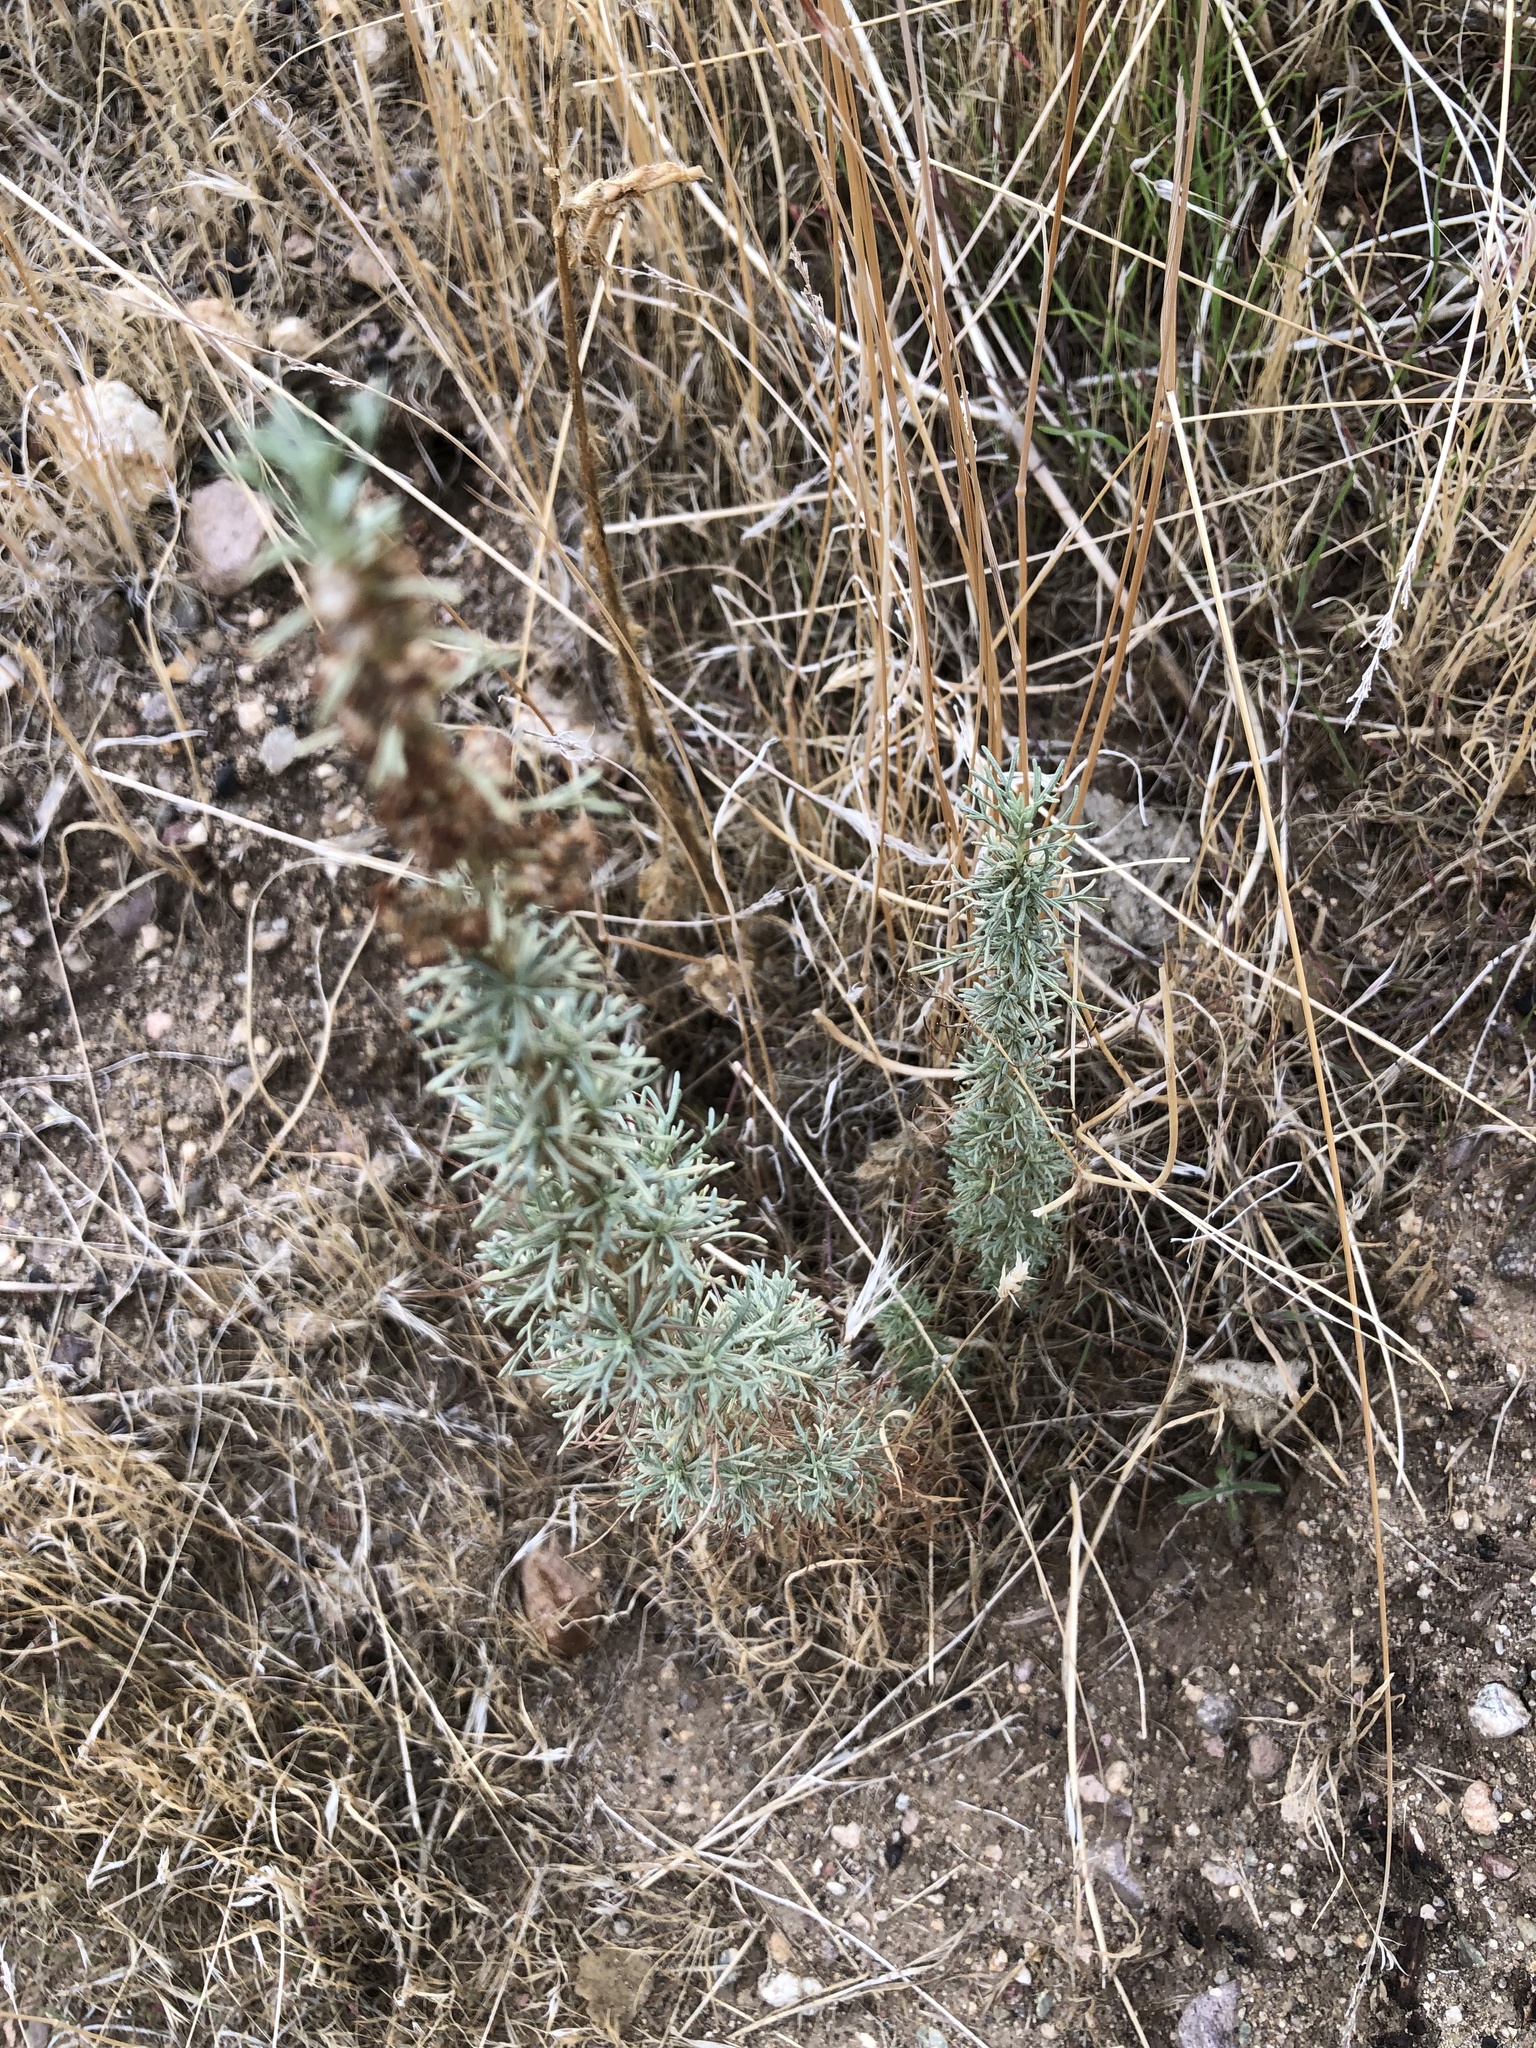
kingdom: Plantae
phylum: Tracheophyta
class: Magnoliopsida
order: Asterales
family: Asteraceae
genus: Artemisia
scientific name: Artemisia californica
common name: California sagebrush
